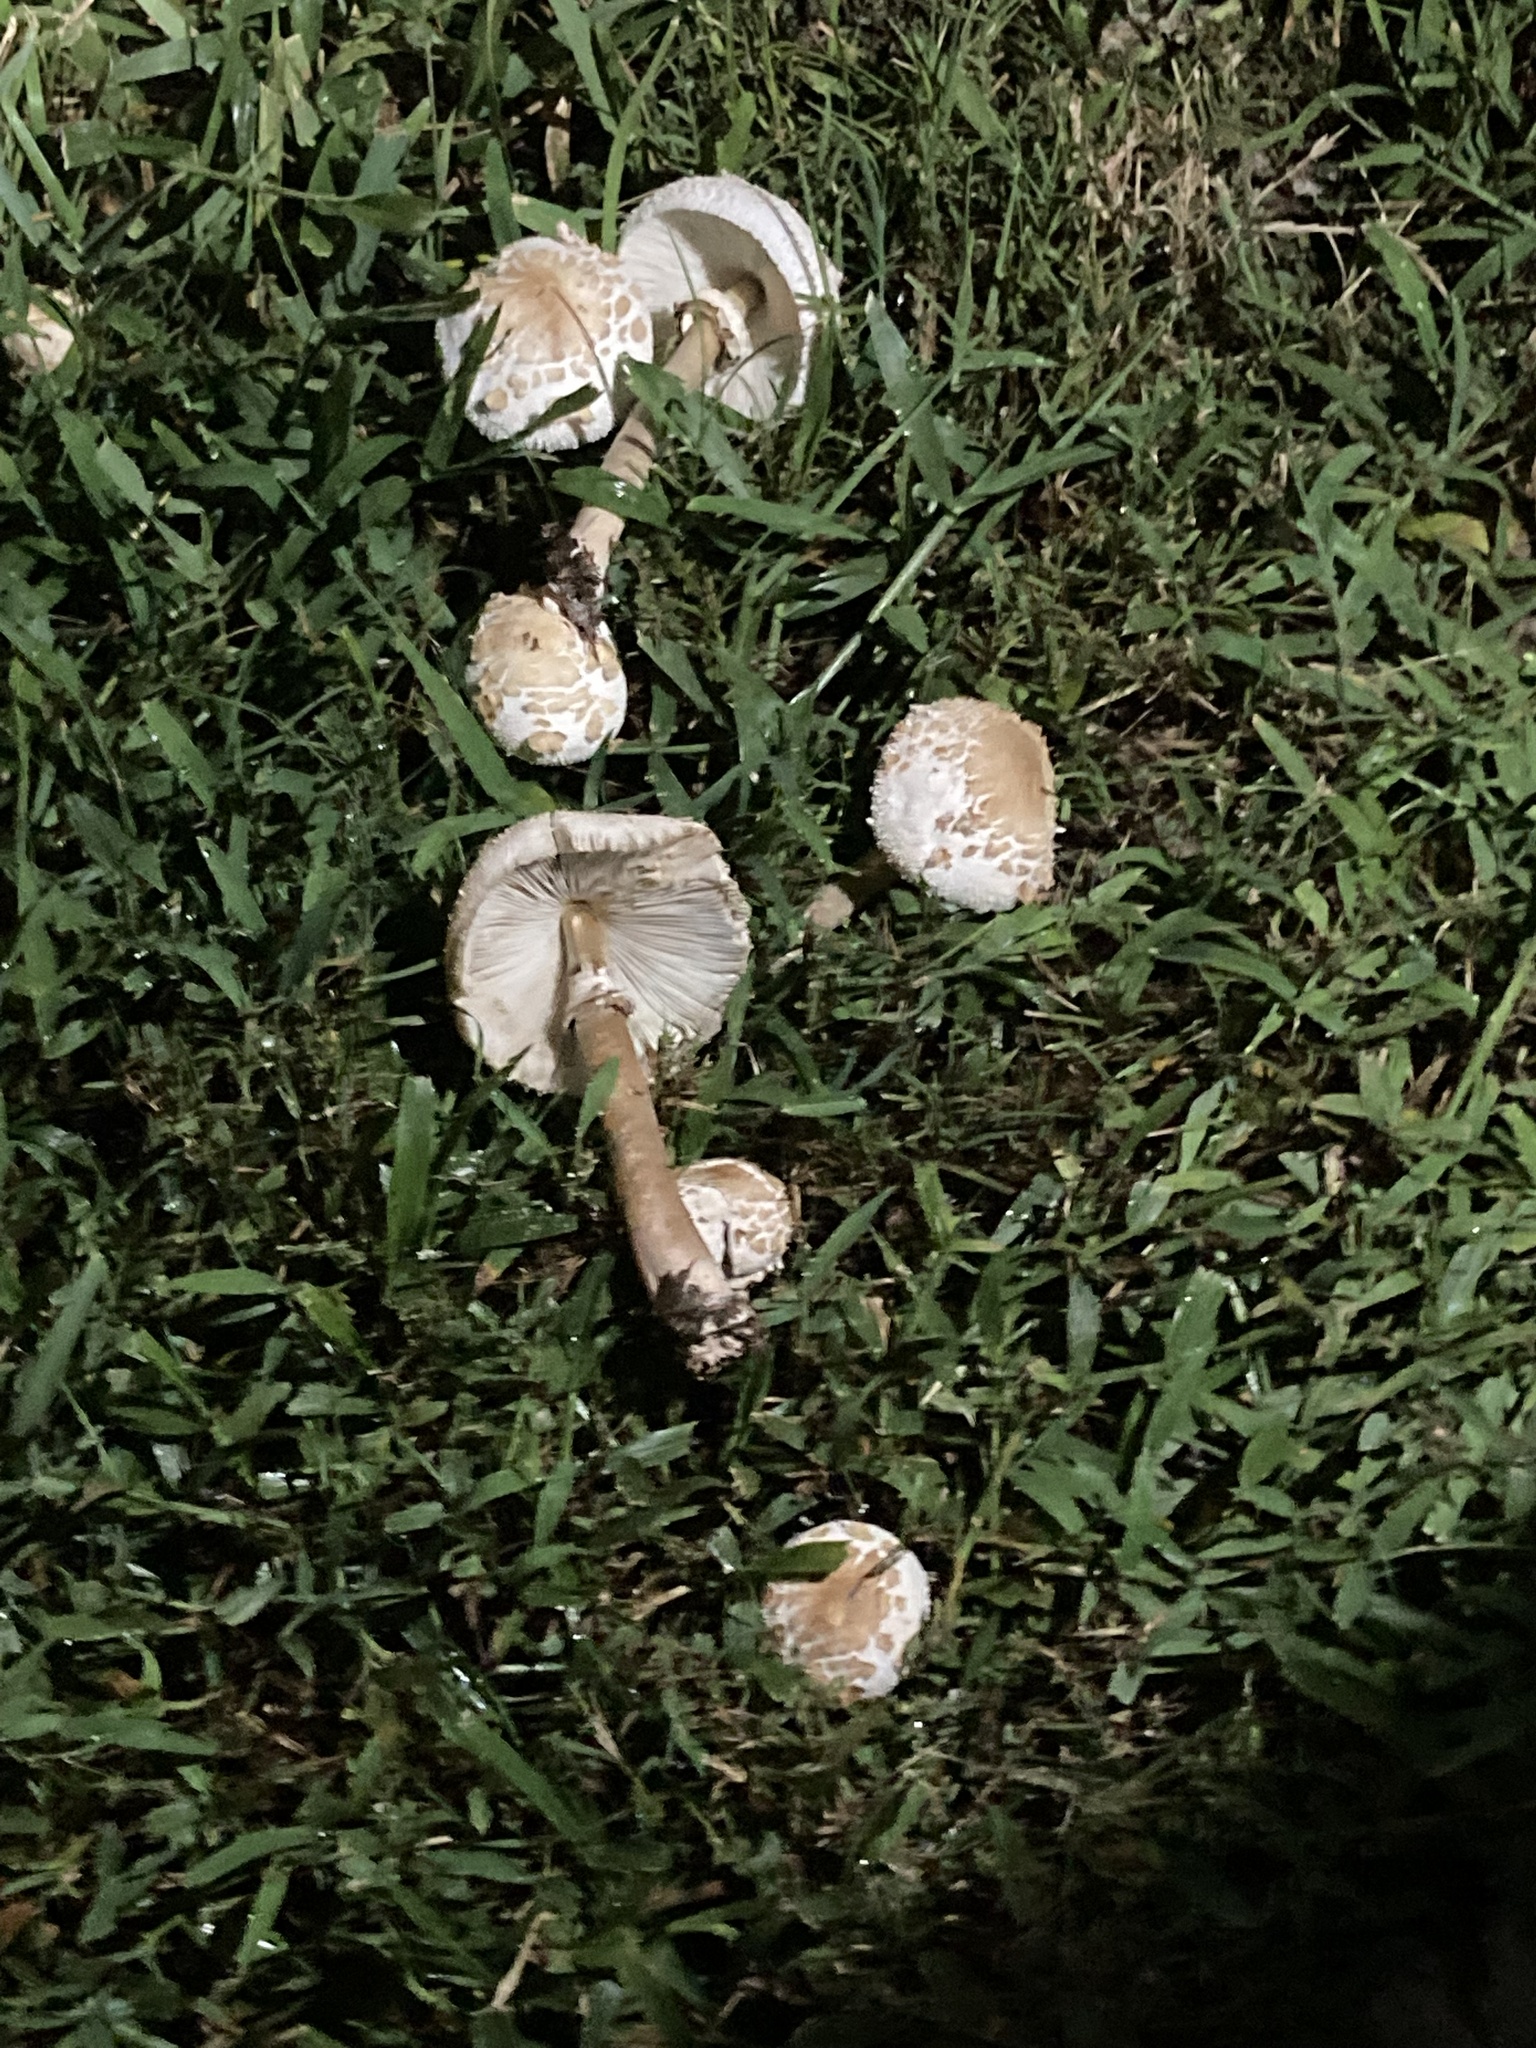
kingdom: Fungi
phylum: Basidiomycota
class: Agaricomycetes
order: Agaricales
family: Agaricaceae
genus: Chlorophyllum
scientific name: Chlorophyllum molybdites
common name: False parasol
